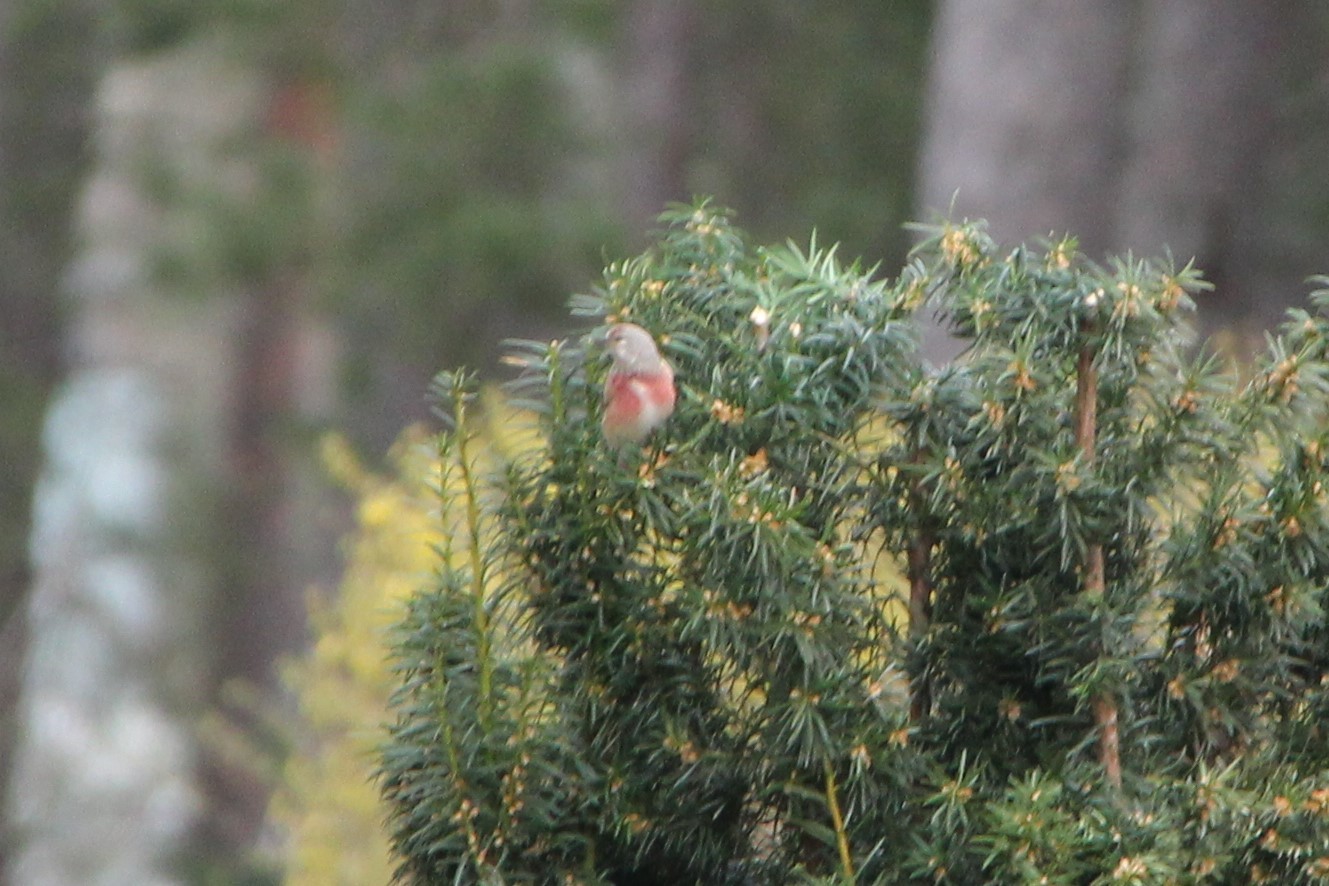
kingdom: Animalia
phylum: Chordata
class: Aves
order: Passeriformes
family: Fringillidae
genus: Linaria
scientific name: Linaria cannabina
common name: Common linnet
